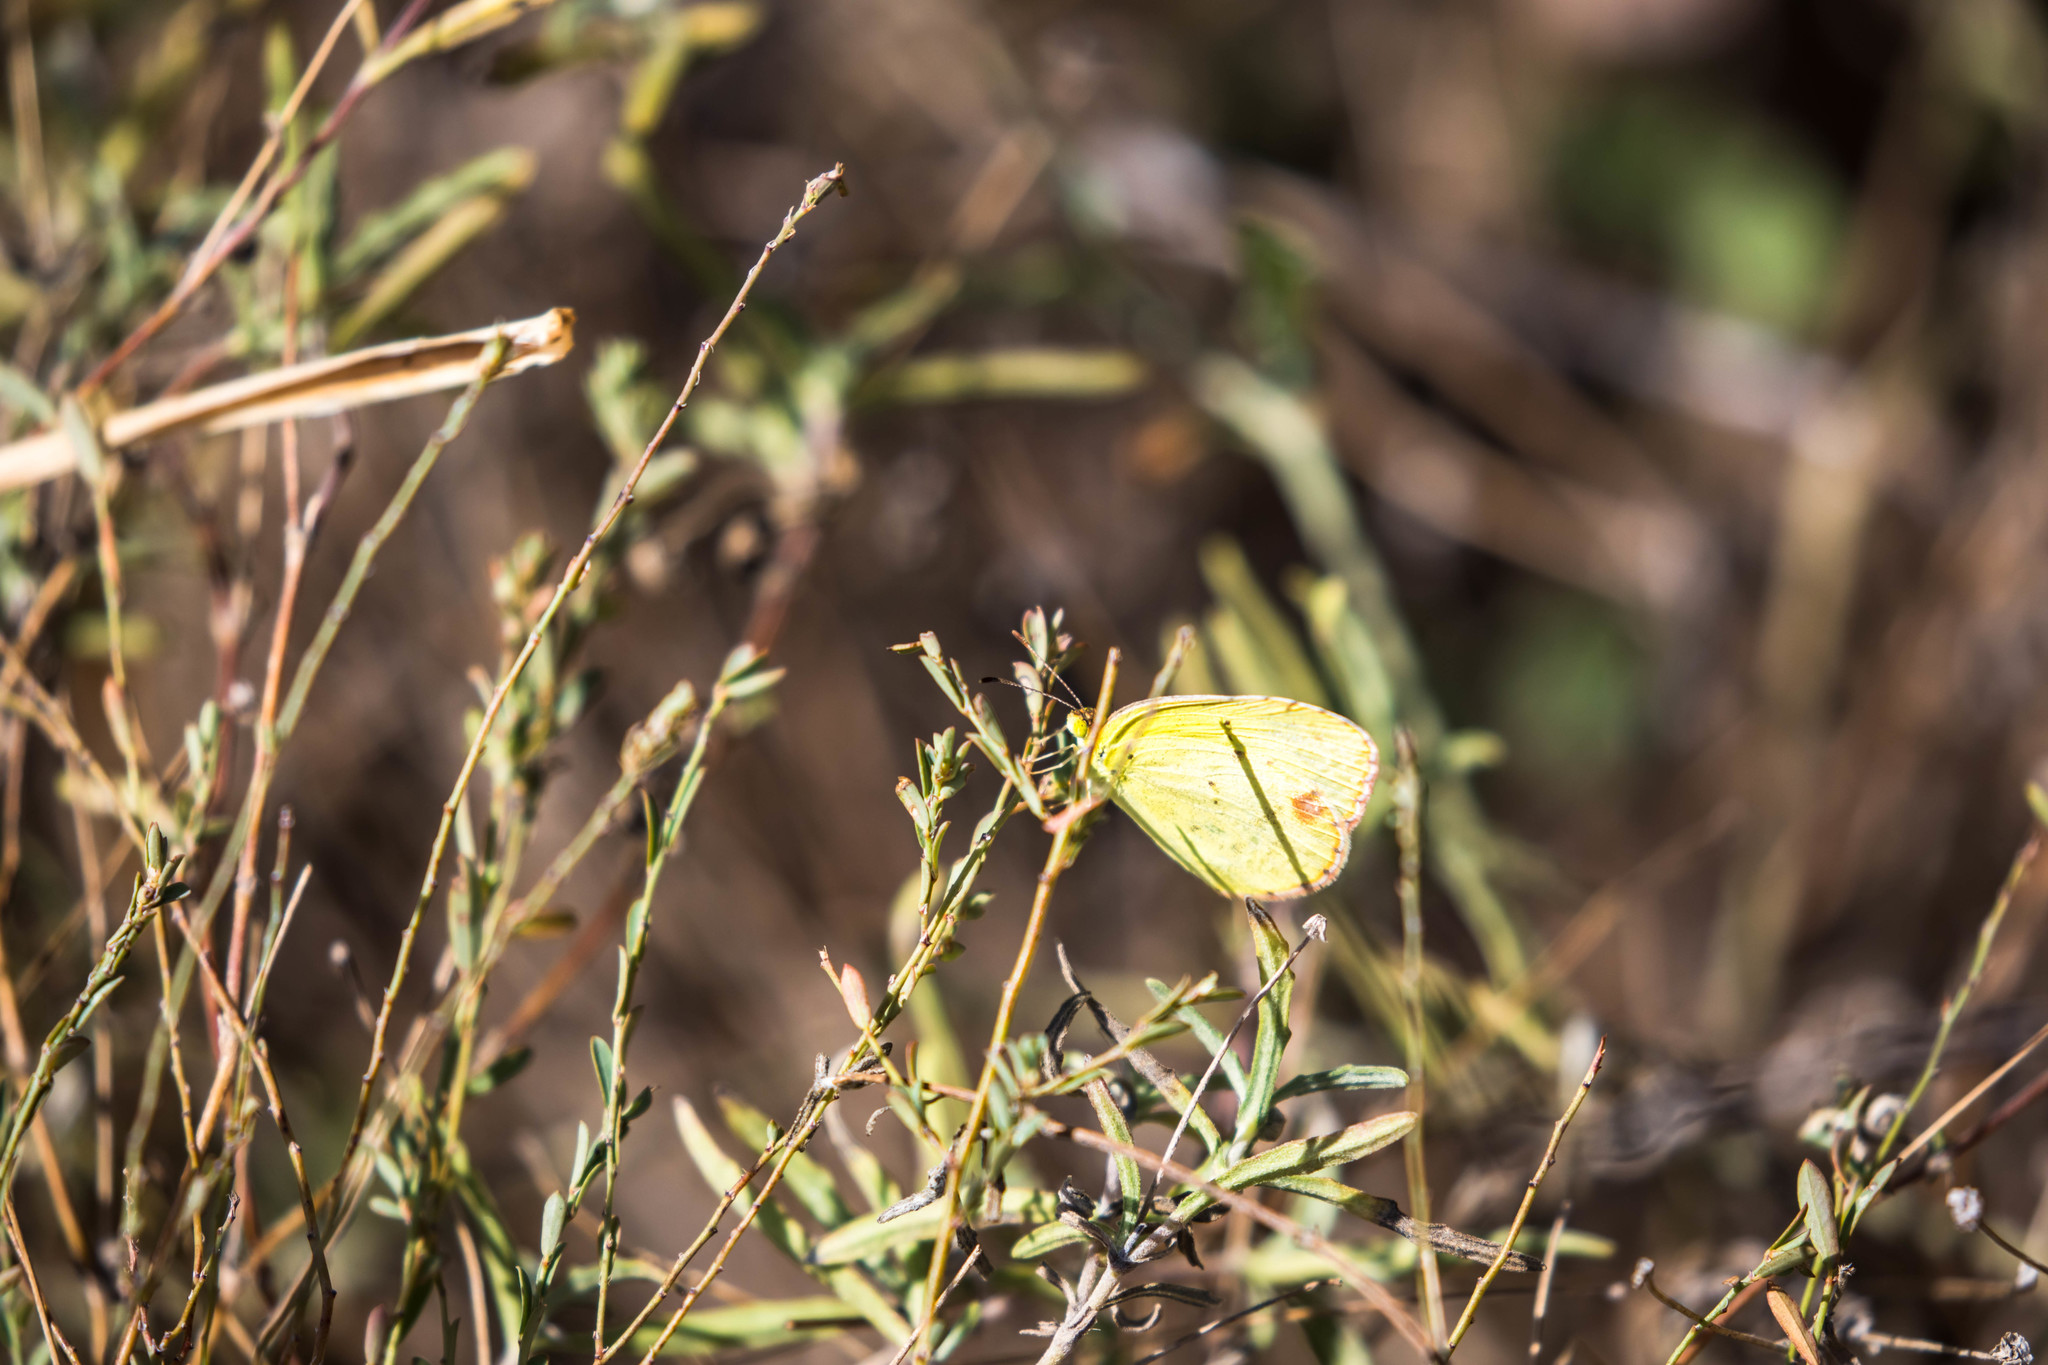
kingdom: Animalia
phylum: Arthropoda
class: Insecta
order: Lepidoptera
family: Pieridae
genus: Pyrisitia
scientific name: Pyrisitia lisa
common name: Little yellow
